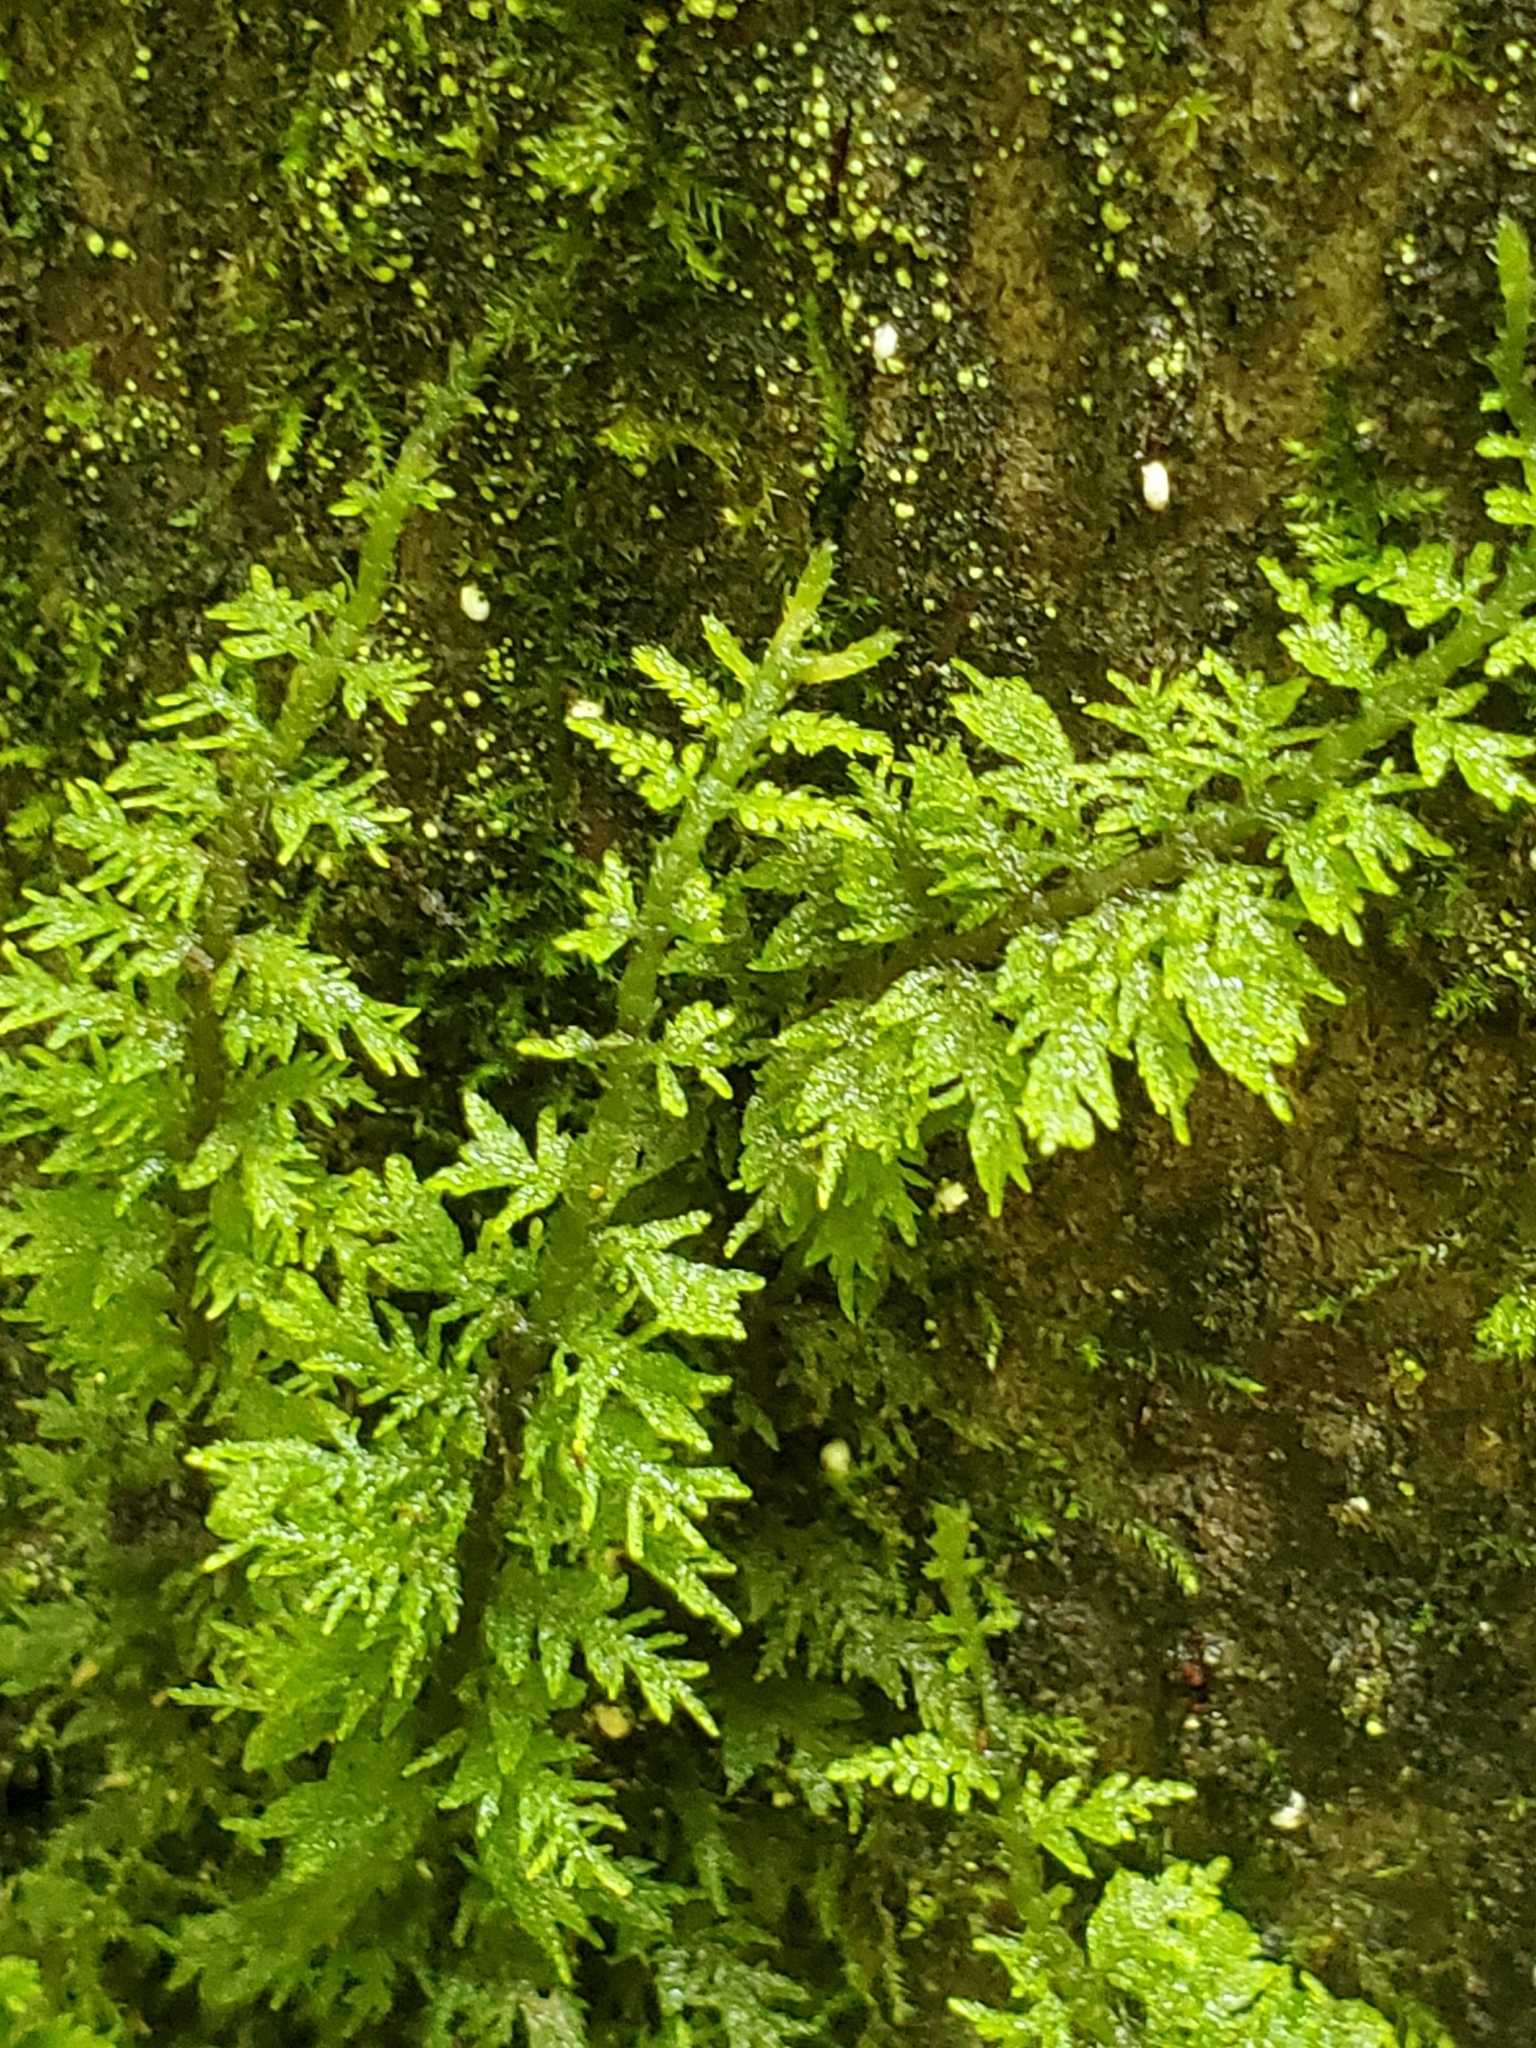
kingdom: Plantae
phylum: Bryophyta
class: Bryopsida
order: Hypnales
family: Thuidiaceae
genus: Thuidium
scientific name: Thuidium delicatulum
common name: Delicate fern moss
